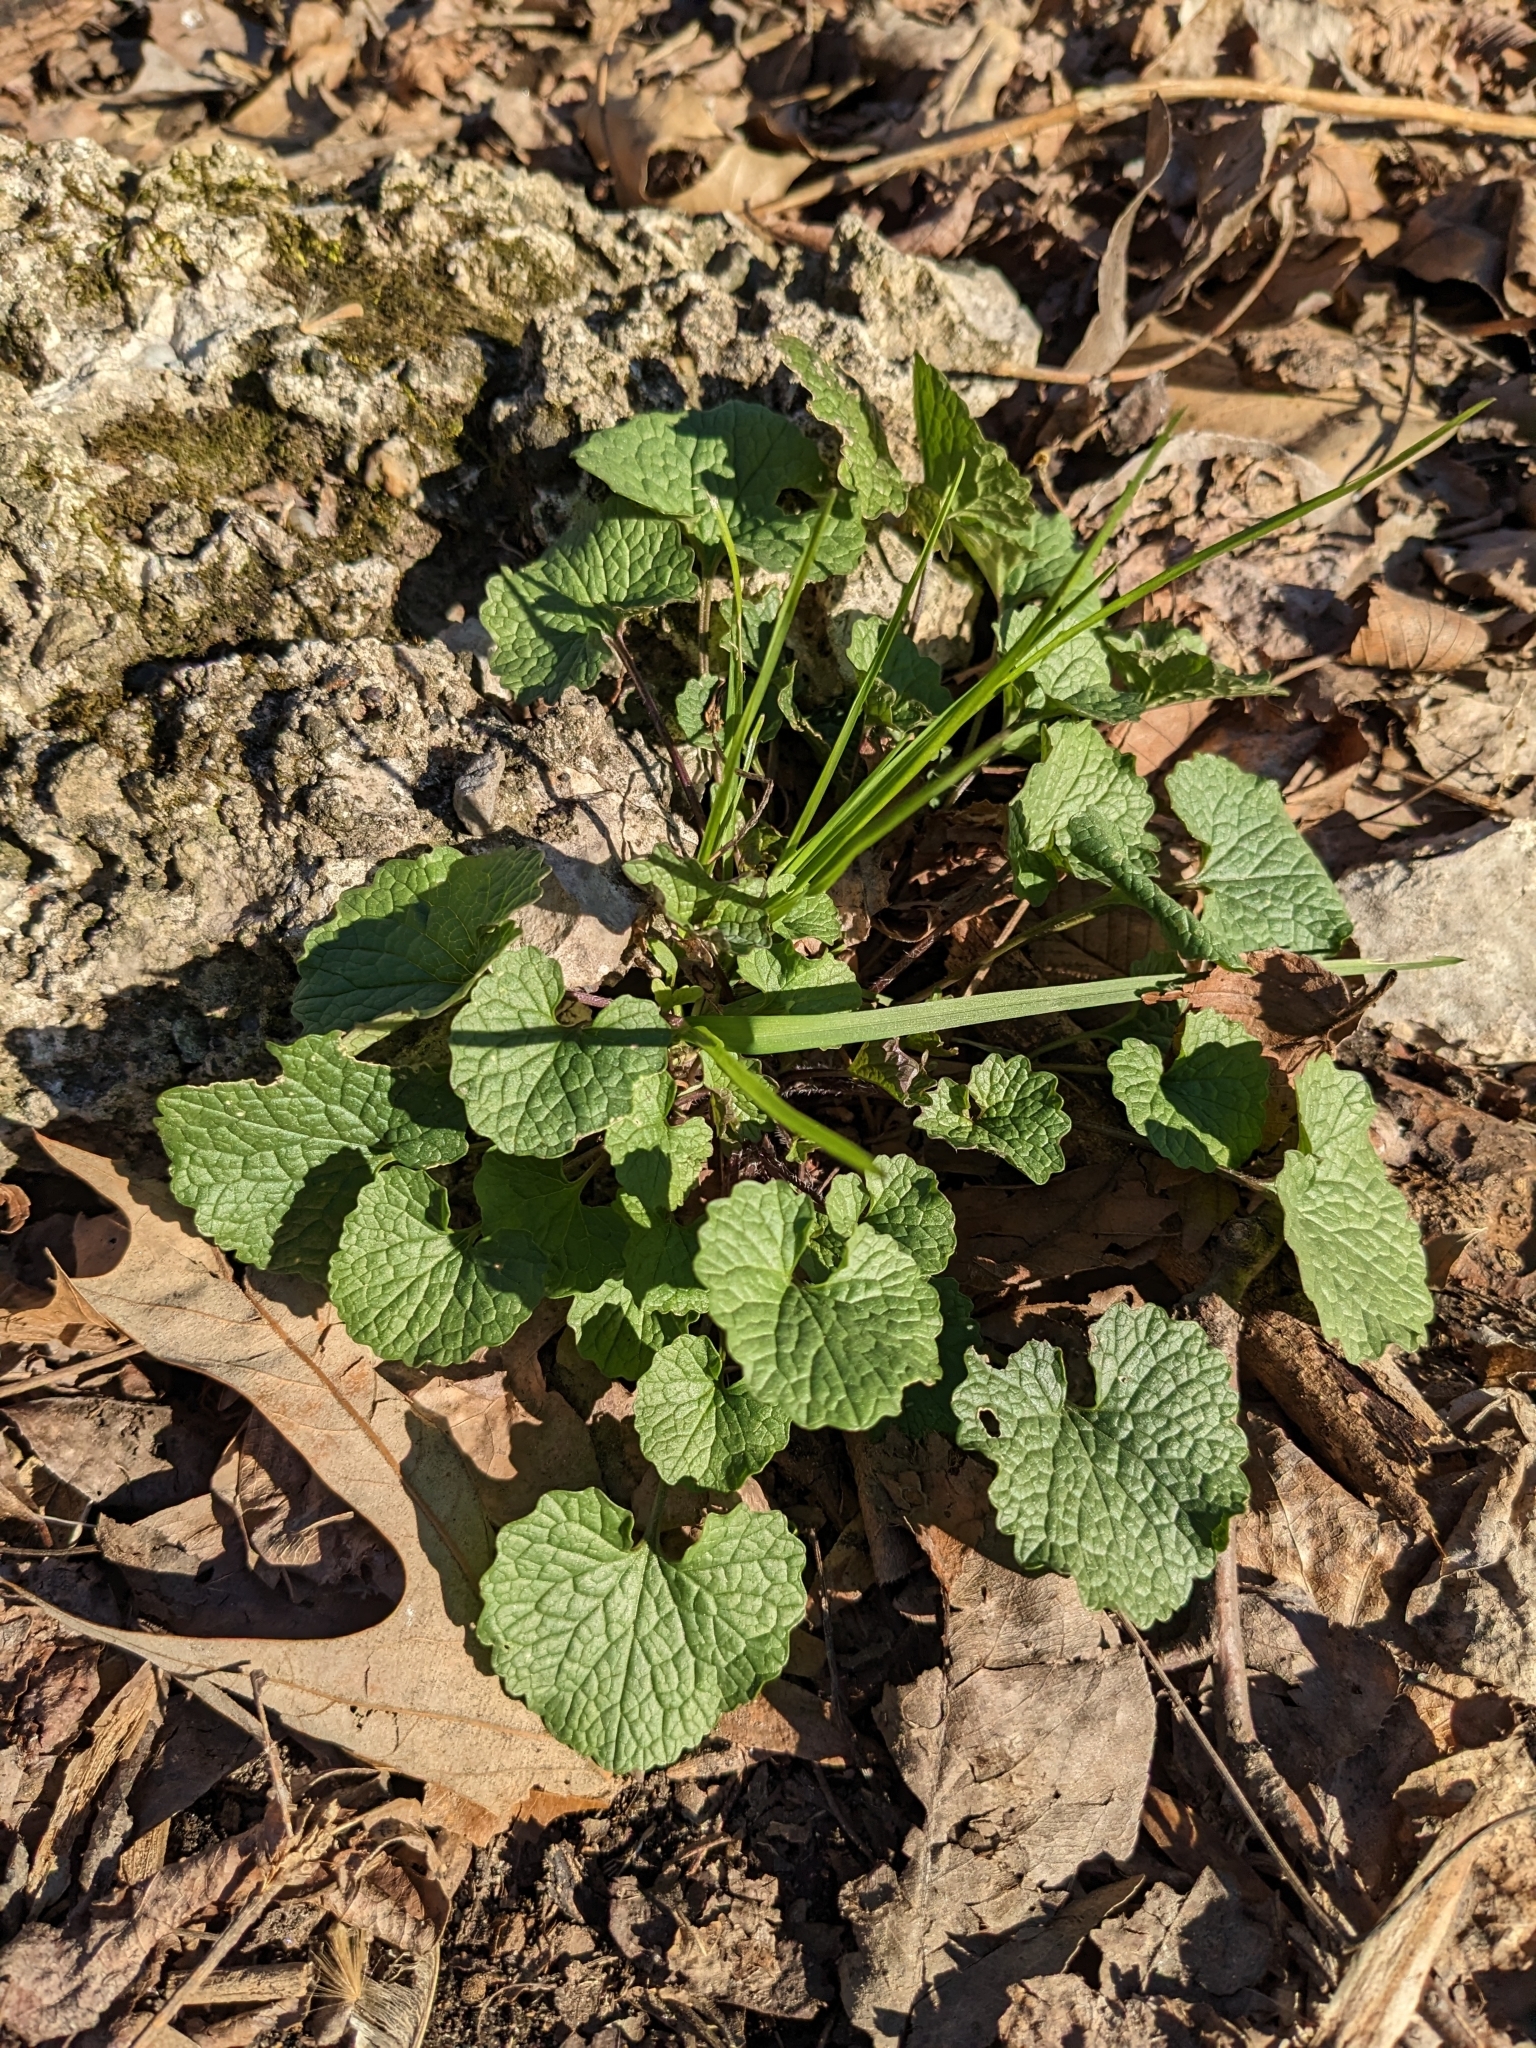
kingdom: Plantae
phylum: Tracheophyta
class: Magnoliopsida
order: Brassicales
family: Brassicaceae
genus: Alliaria
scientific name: Alliaria petiolata
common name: Garlic mustard
